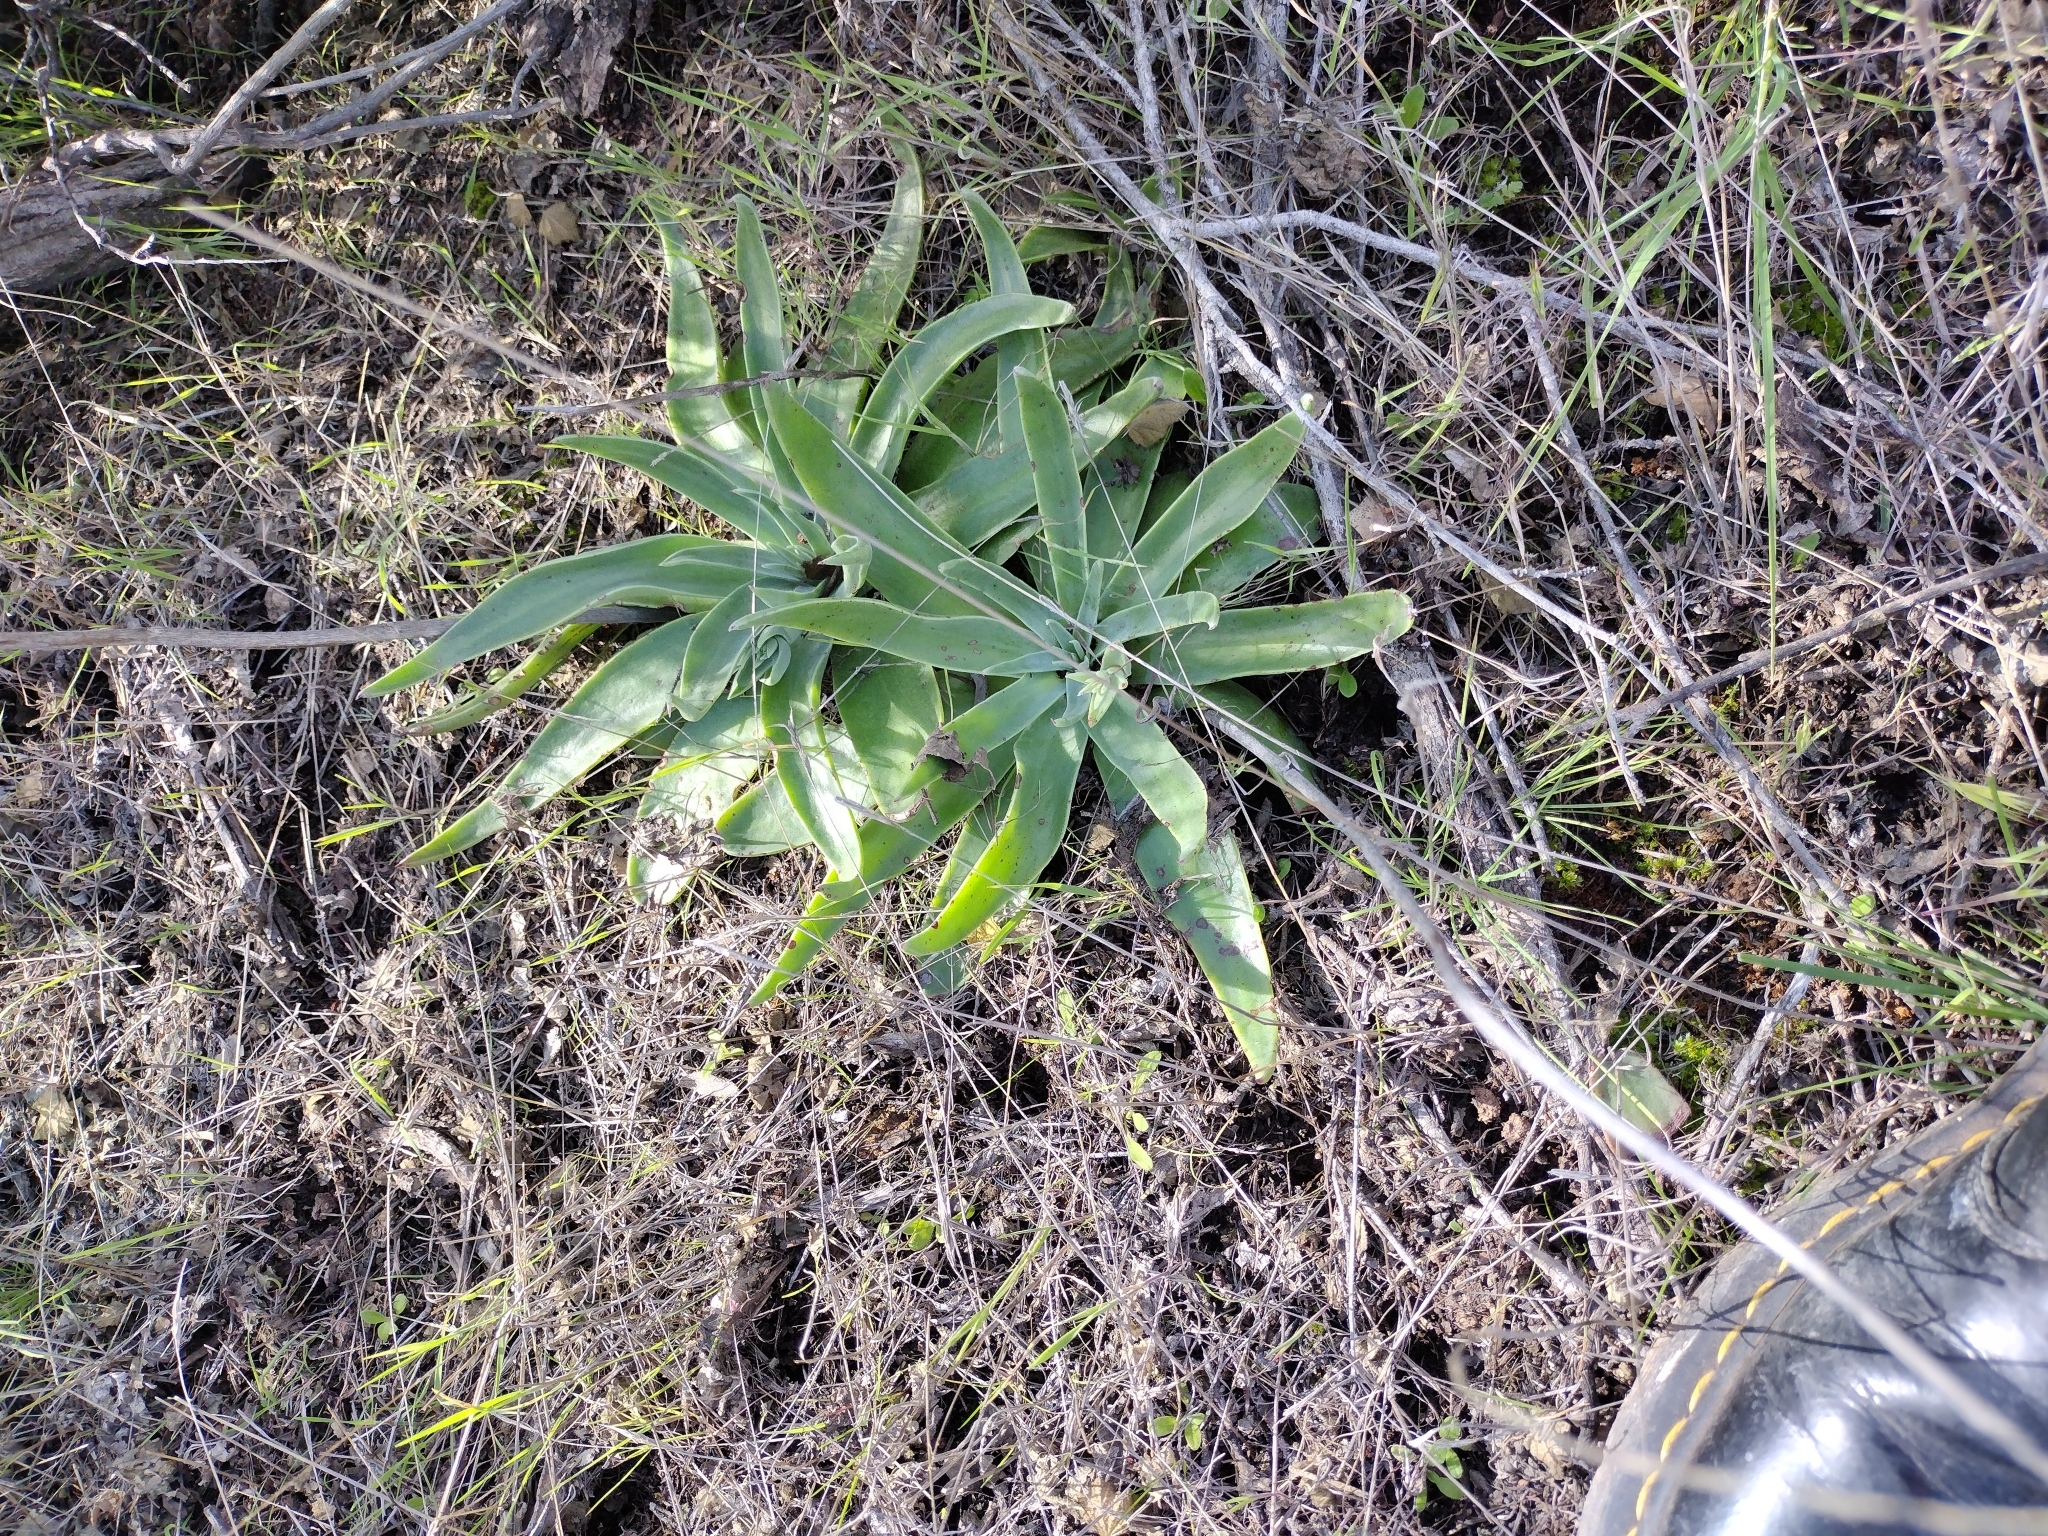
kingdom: Plantae
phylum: Tracheophyta
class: Magnoliopsida
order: Saxifragales
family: Crassulaceae
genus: Dudleya
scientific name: Dudleya lanceolata
